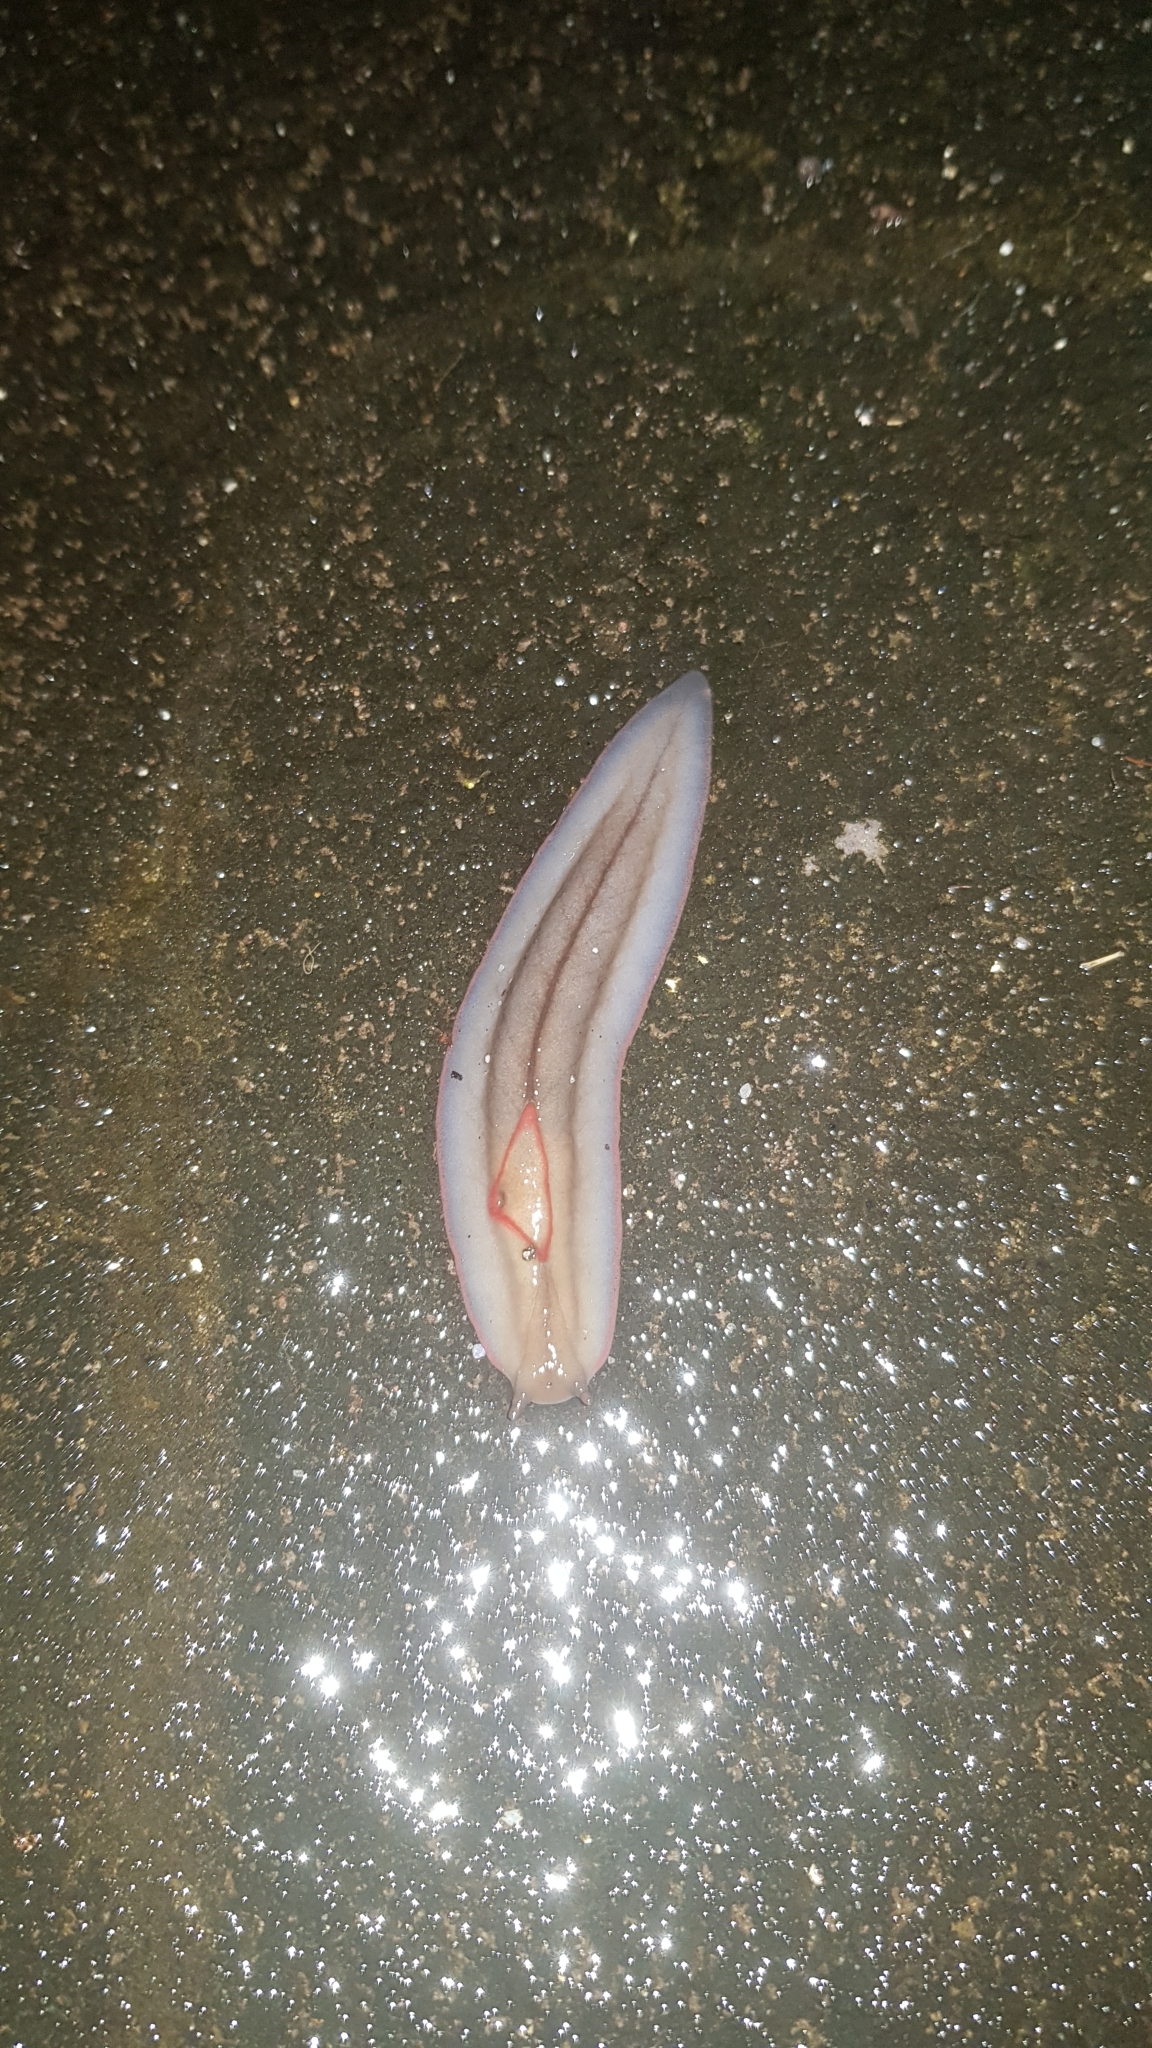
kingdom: Animalia
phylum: Mollusca
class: Gastropoda
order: Stylommatophora
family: Athoracophoridae
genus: Triboniophorus
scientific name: Triboniophorus graeffei
